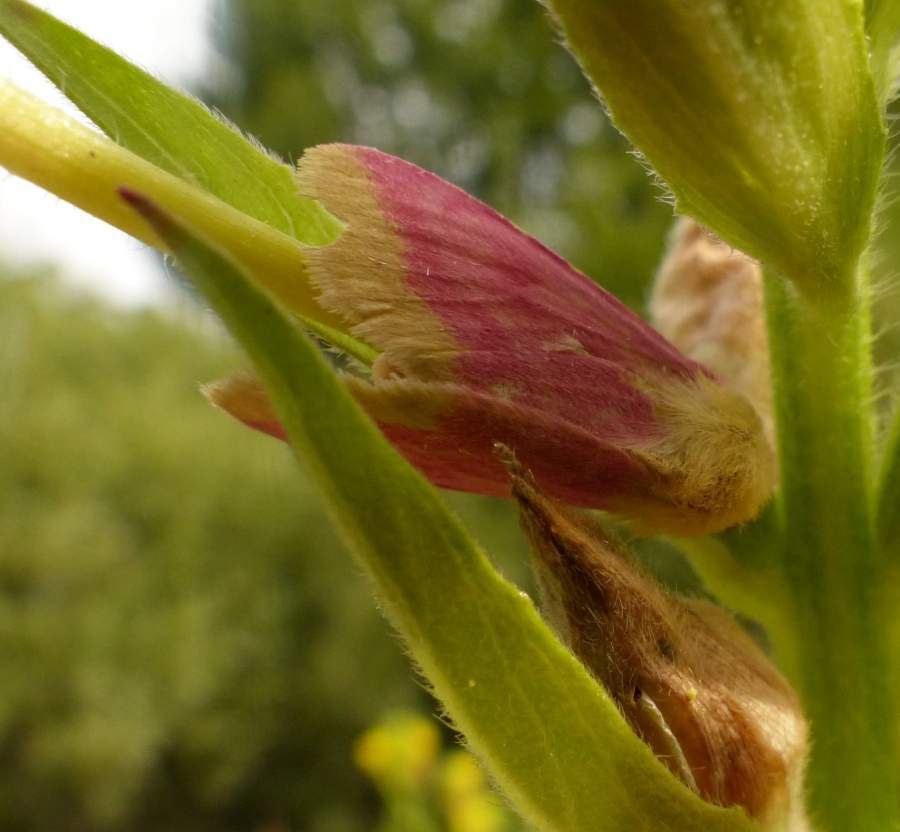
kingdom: Animalia
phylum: Arthropoda
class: Insecta
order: Lepidoptera
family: Noctuidae
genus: Schinia
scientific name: Schinia florida
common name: Primrose moth
